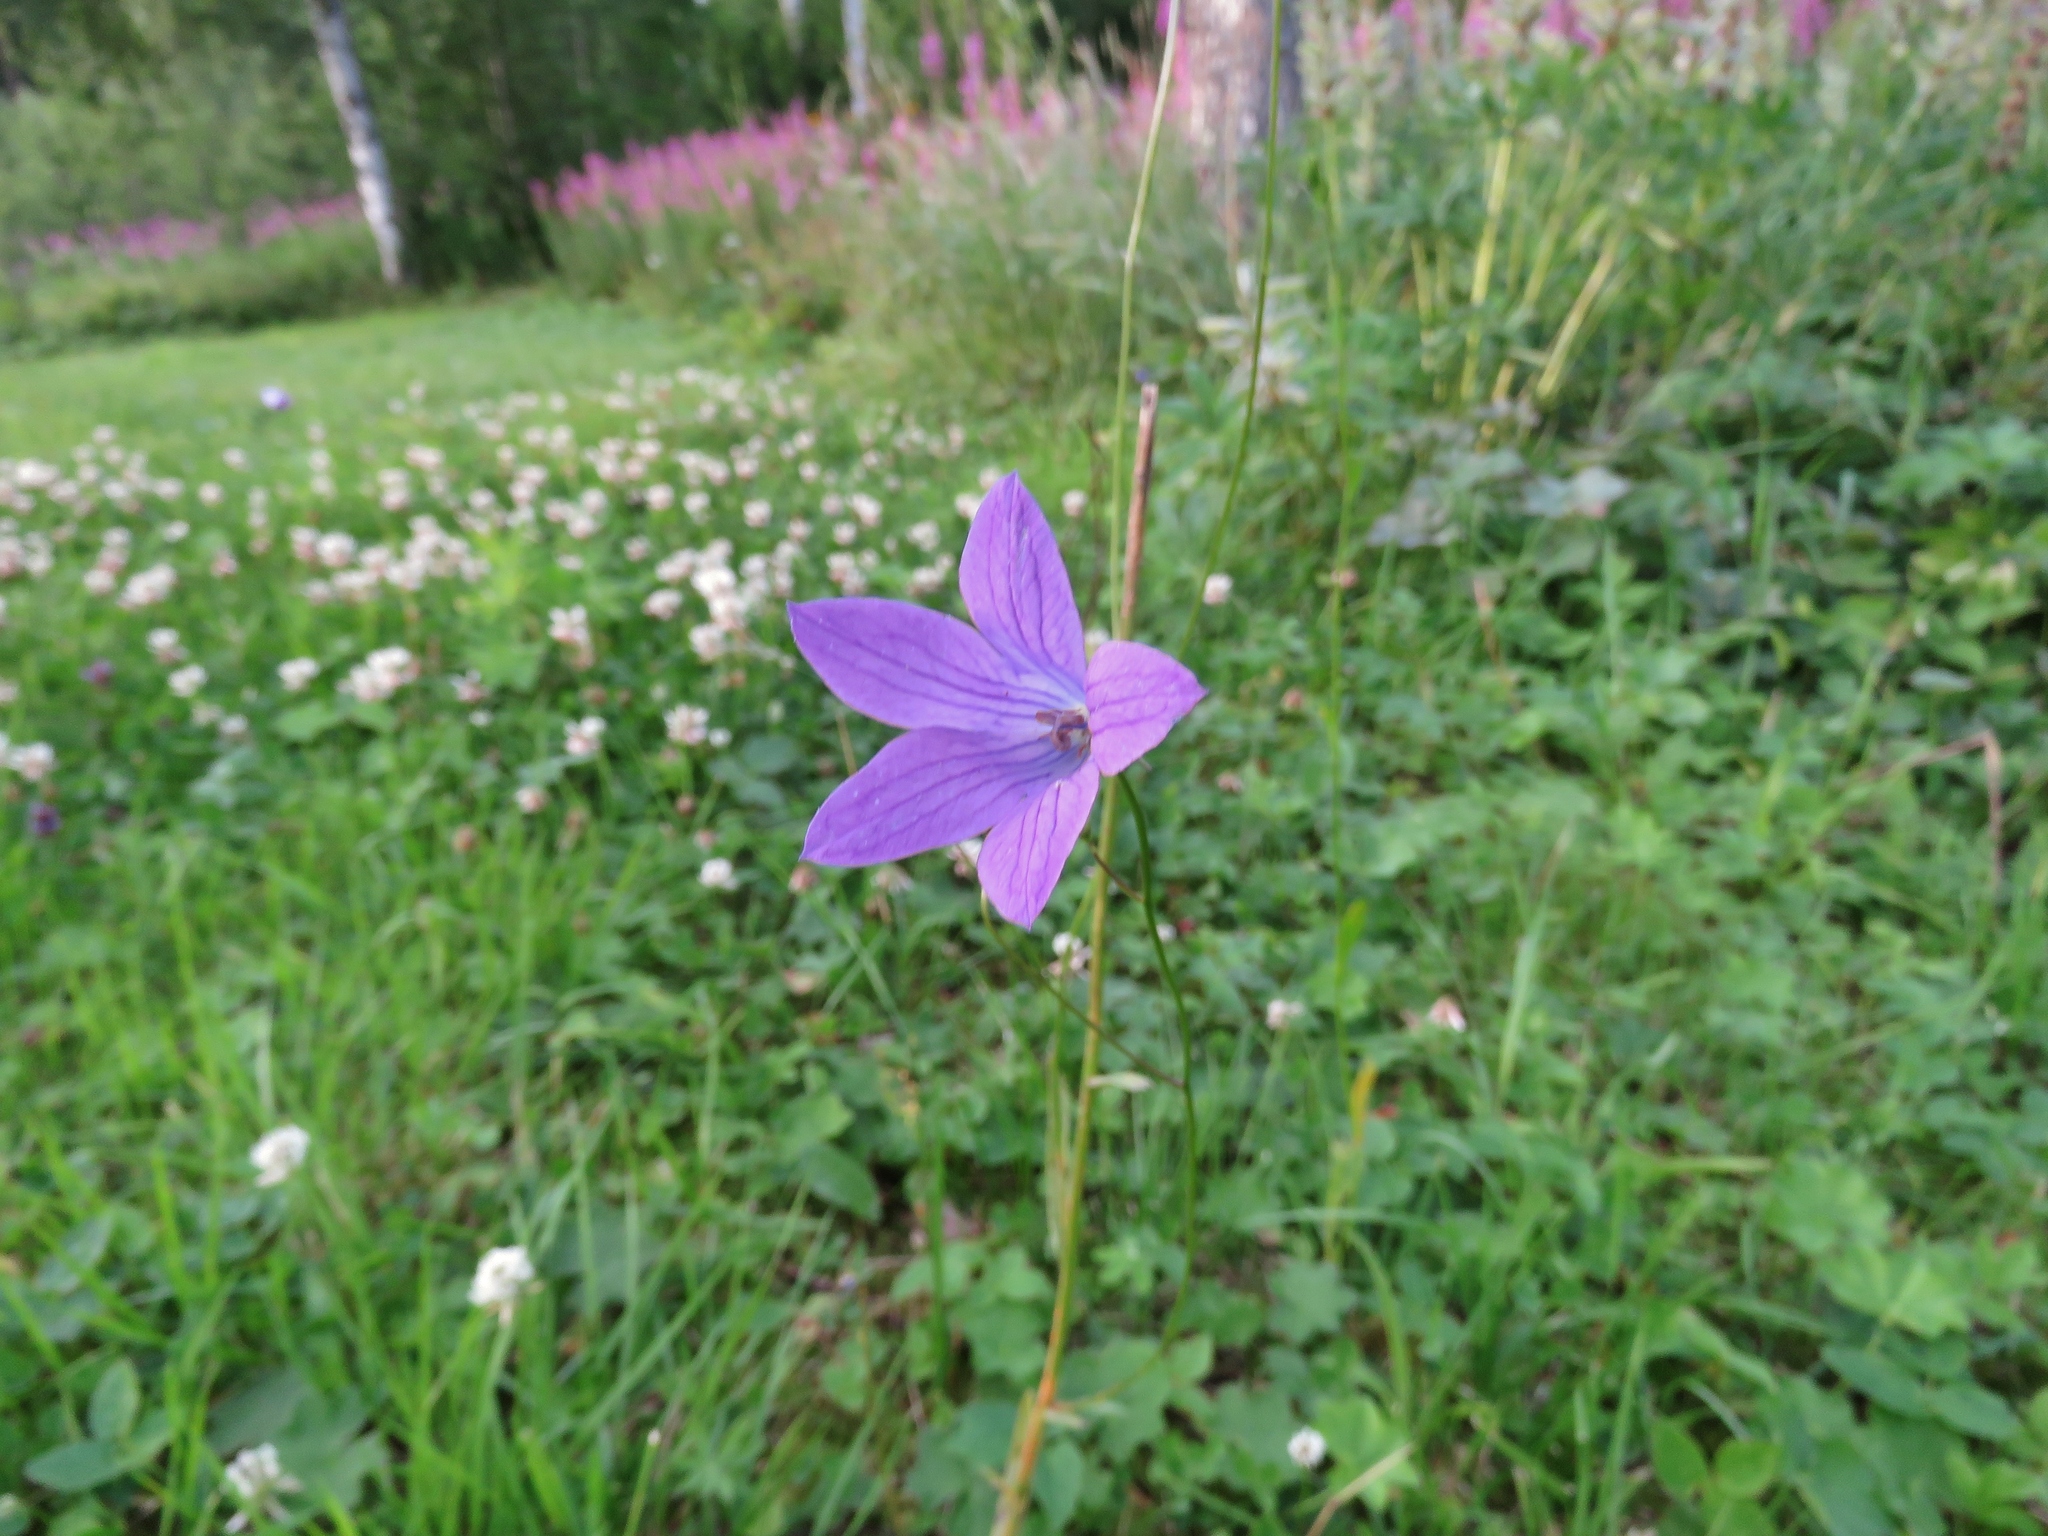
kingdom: Plantae
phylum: Tracheophyta
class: Magnoliopsida
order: Asterales
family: Campanulaceae
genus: Campanula
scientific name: Campanula patula
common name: Spreading bellflower
